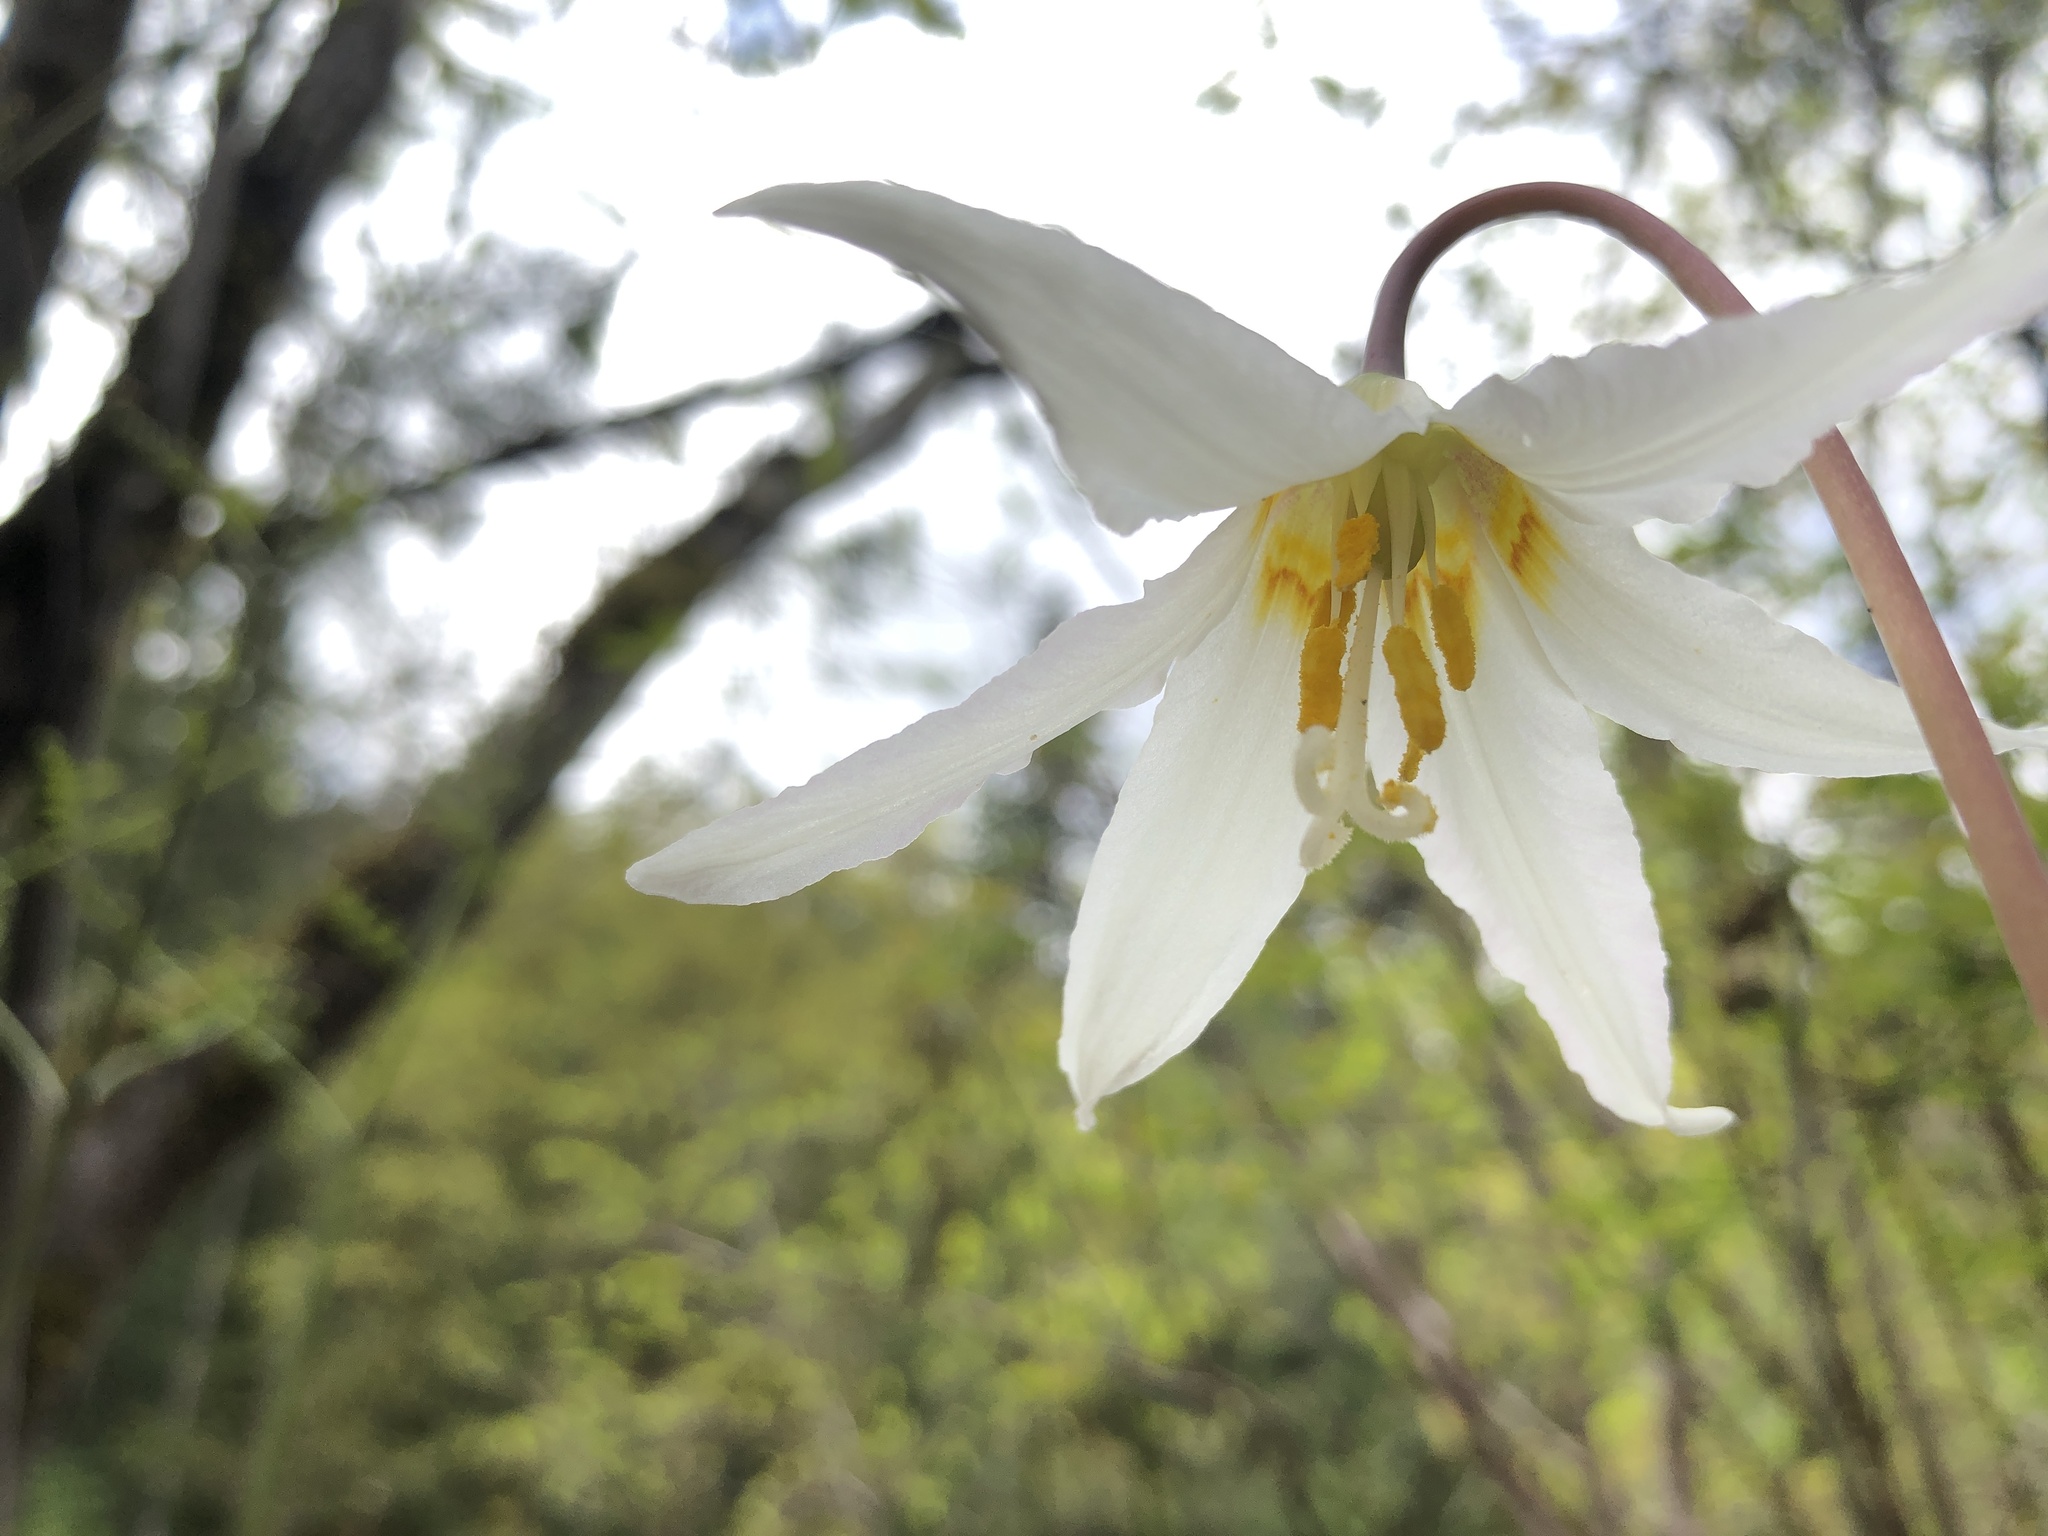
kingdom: Plantae
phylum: Tracheophyta
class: Liliopsida
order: Liliales
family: Liliaceae
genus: Erythronium
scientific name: Erythronium oregonum
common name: Giant adder's-tongue
